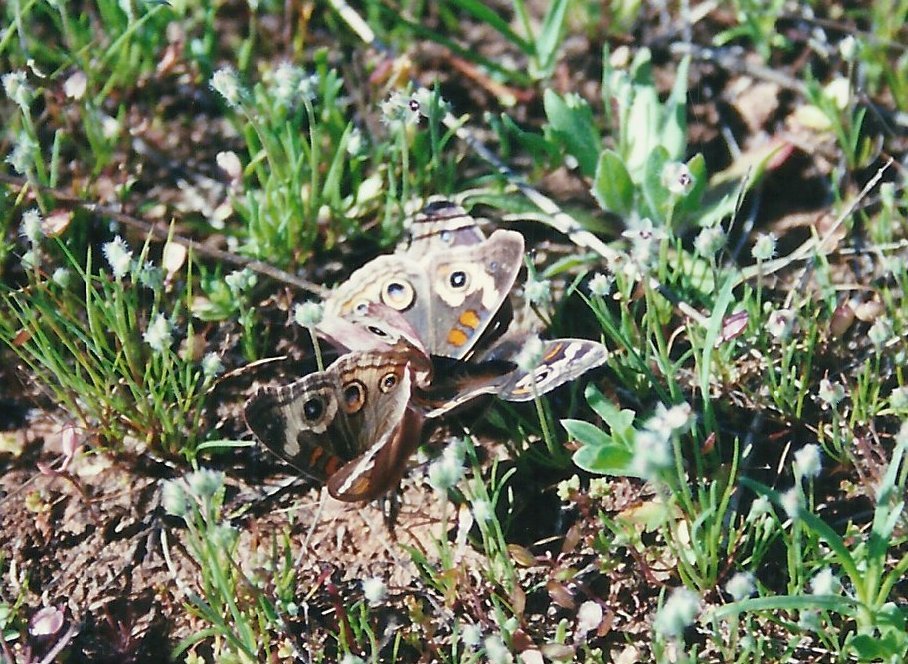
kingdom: Animalia
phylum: Arthropoda
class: Insecta
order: Lepidoptera
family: Nymphalidae
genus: Junonia
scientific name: Junonia grisea
